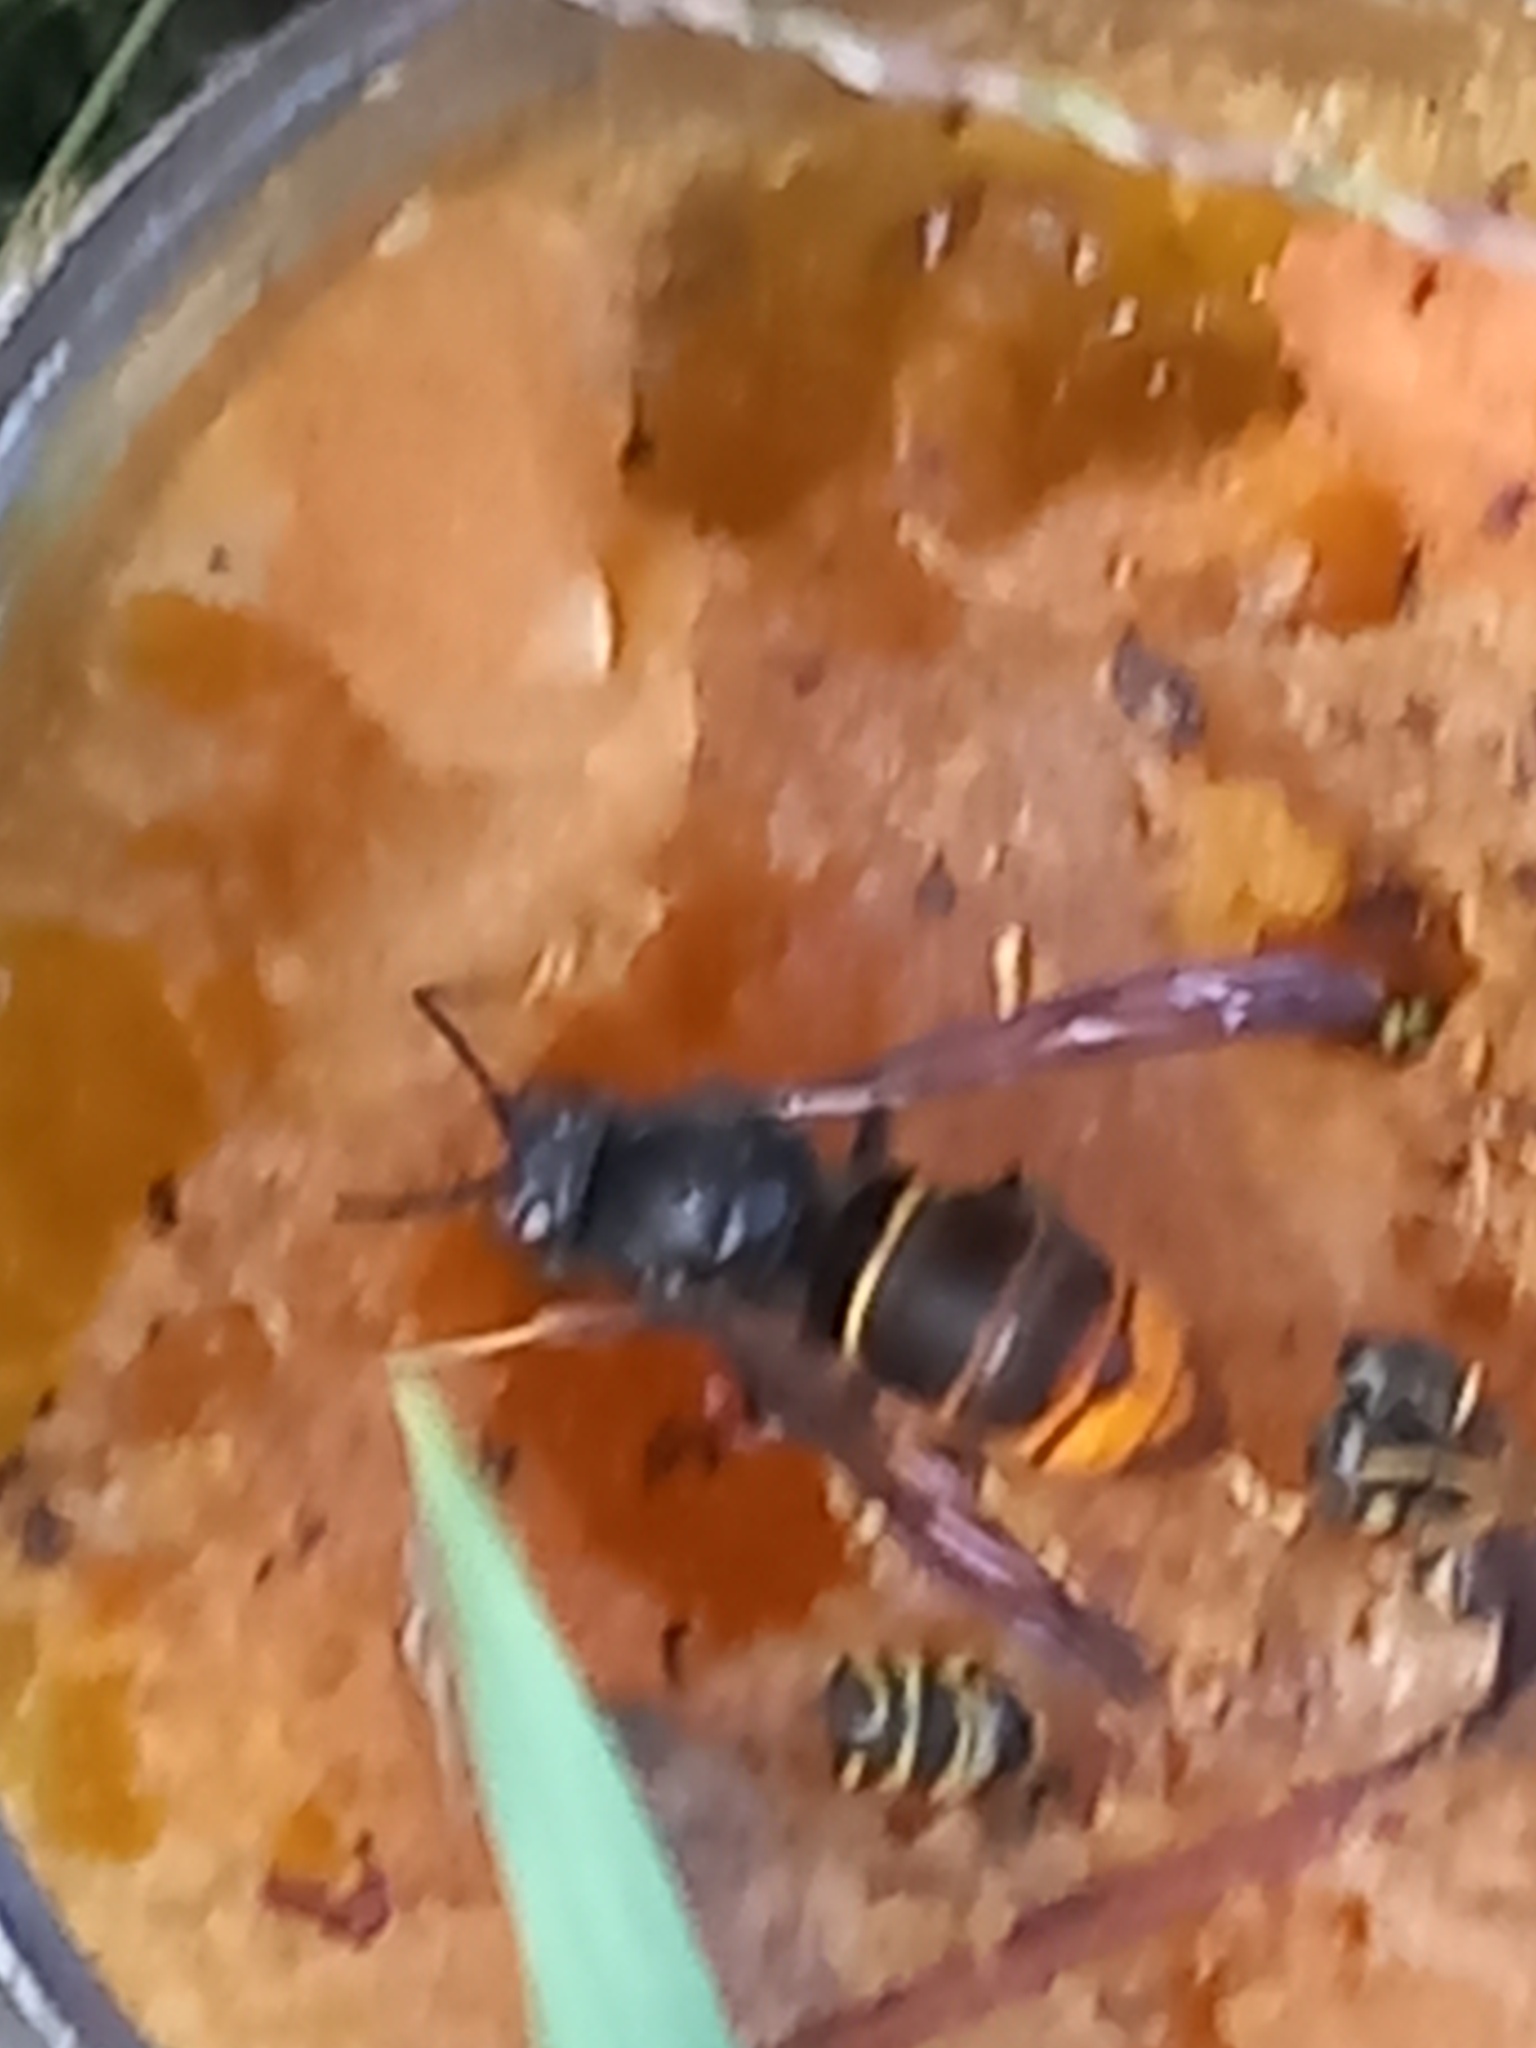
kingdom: Animalia
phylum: Arthropoda
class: Insecta
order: Hymenoptera
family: Vespidae
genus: Vespa
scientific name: Vespa velutina
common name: Asian hornet
